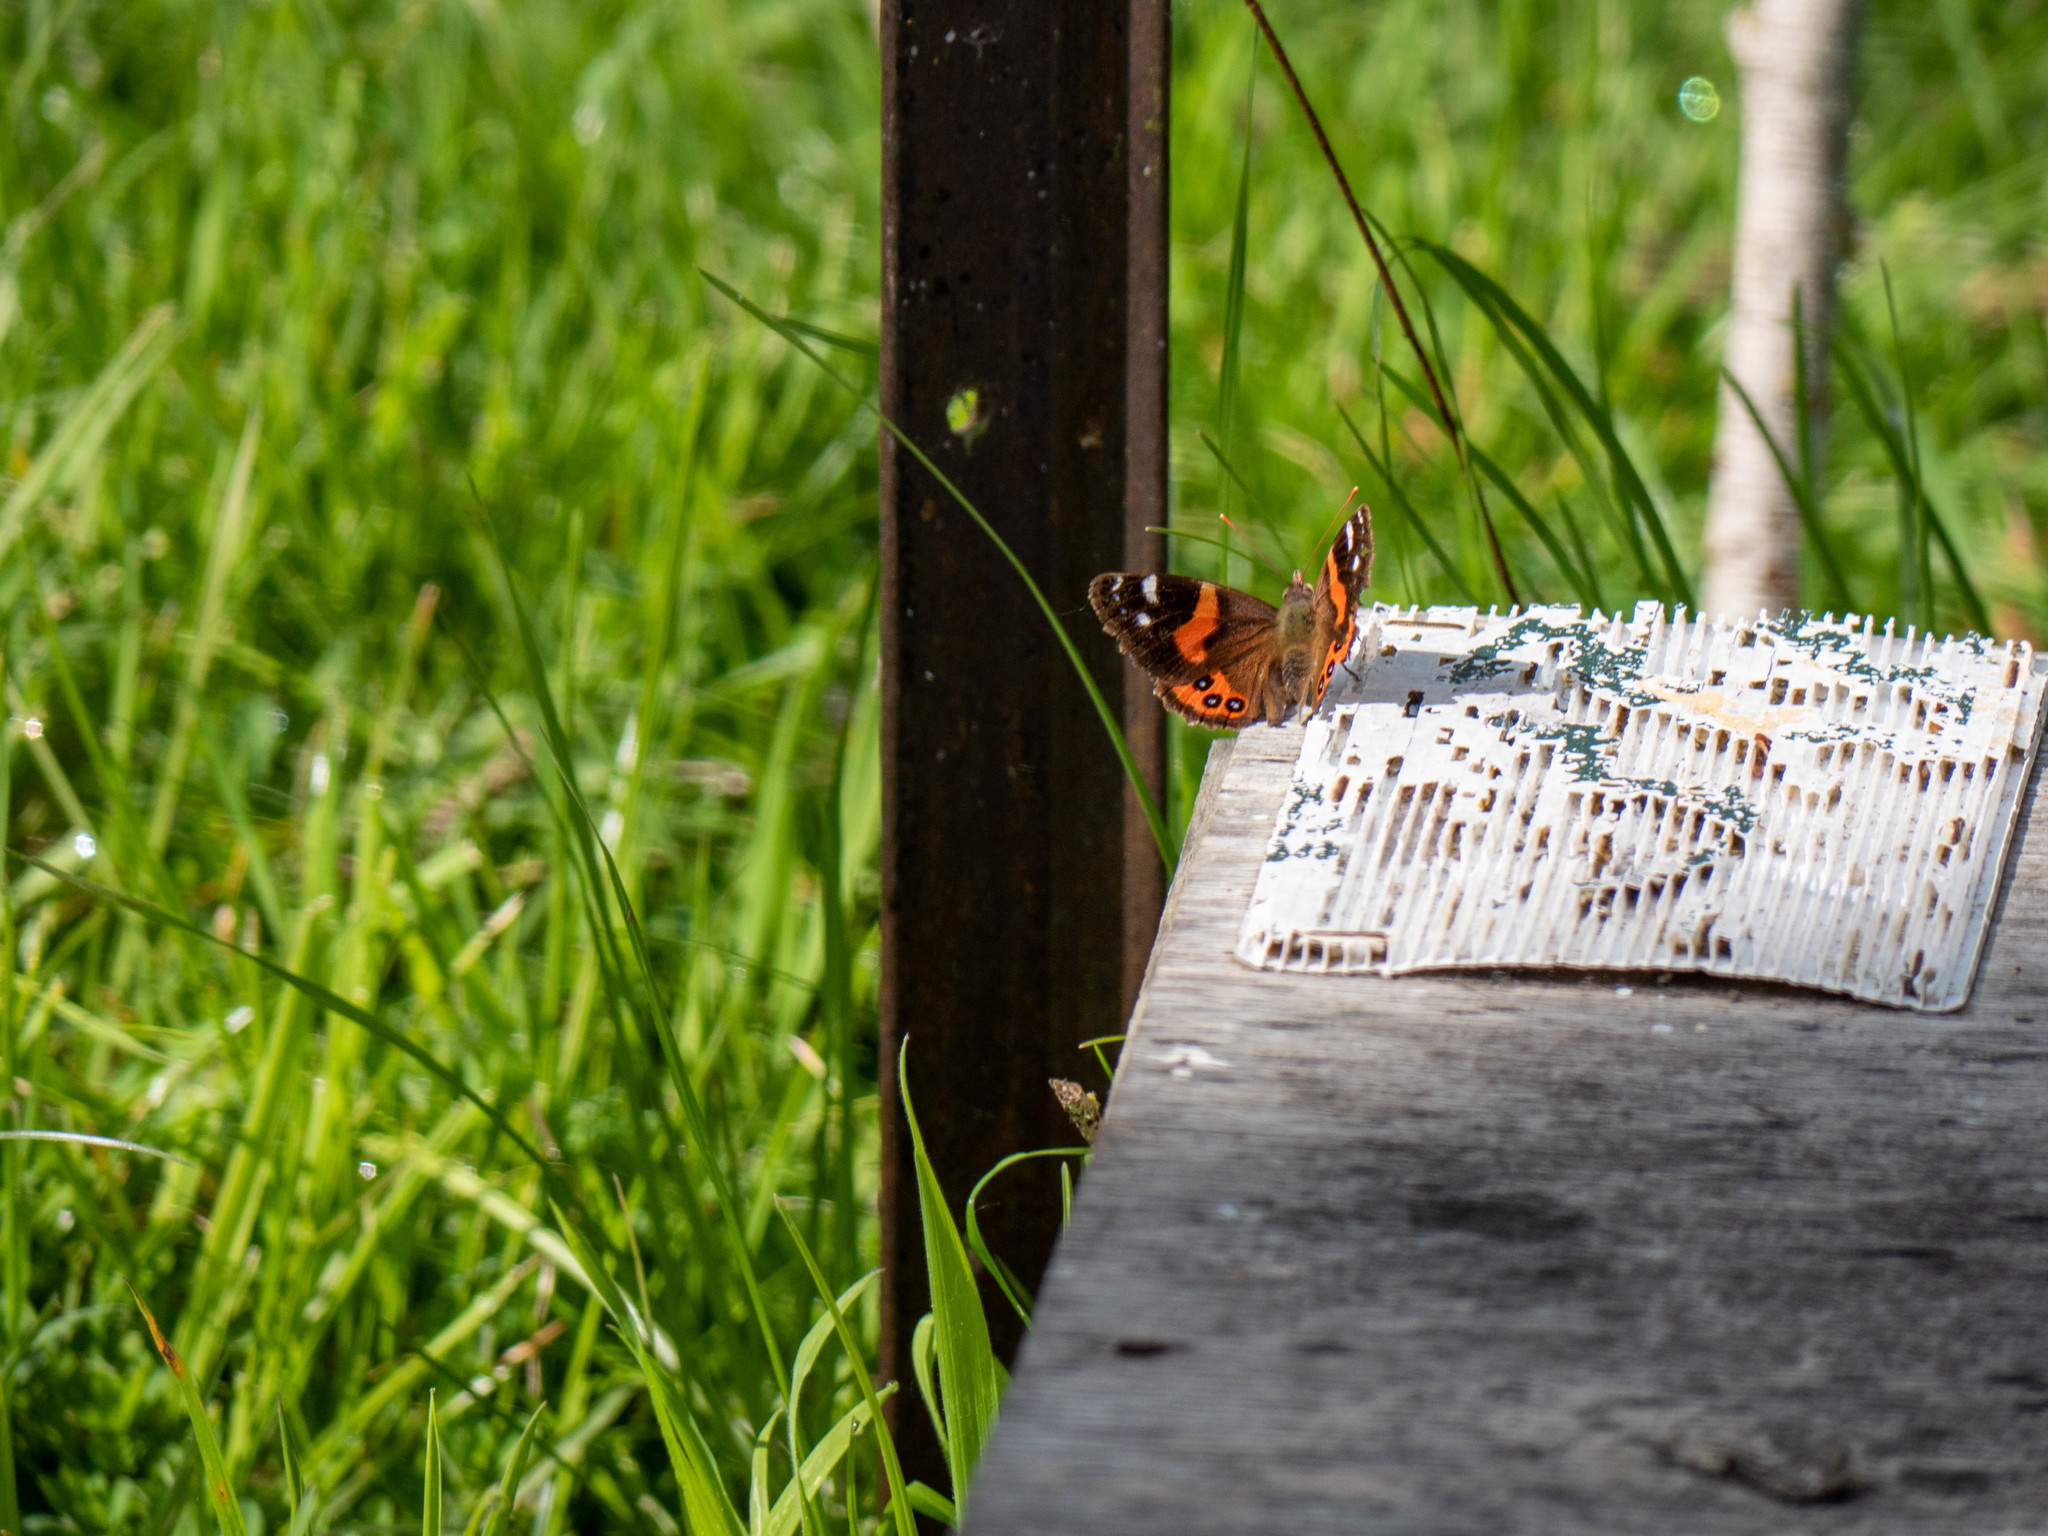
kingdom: Animalia
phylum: Arthropoda
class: Insecta
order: Lepidoptera
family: Nymphalidae
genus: Vanessa
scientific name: Vanessa gonerilla
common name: New zealand red admiral
